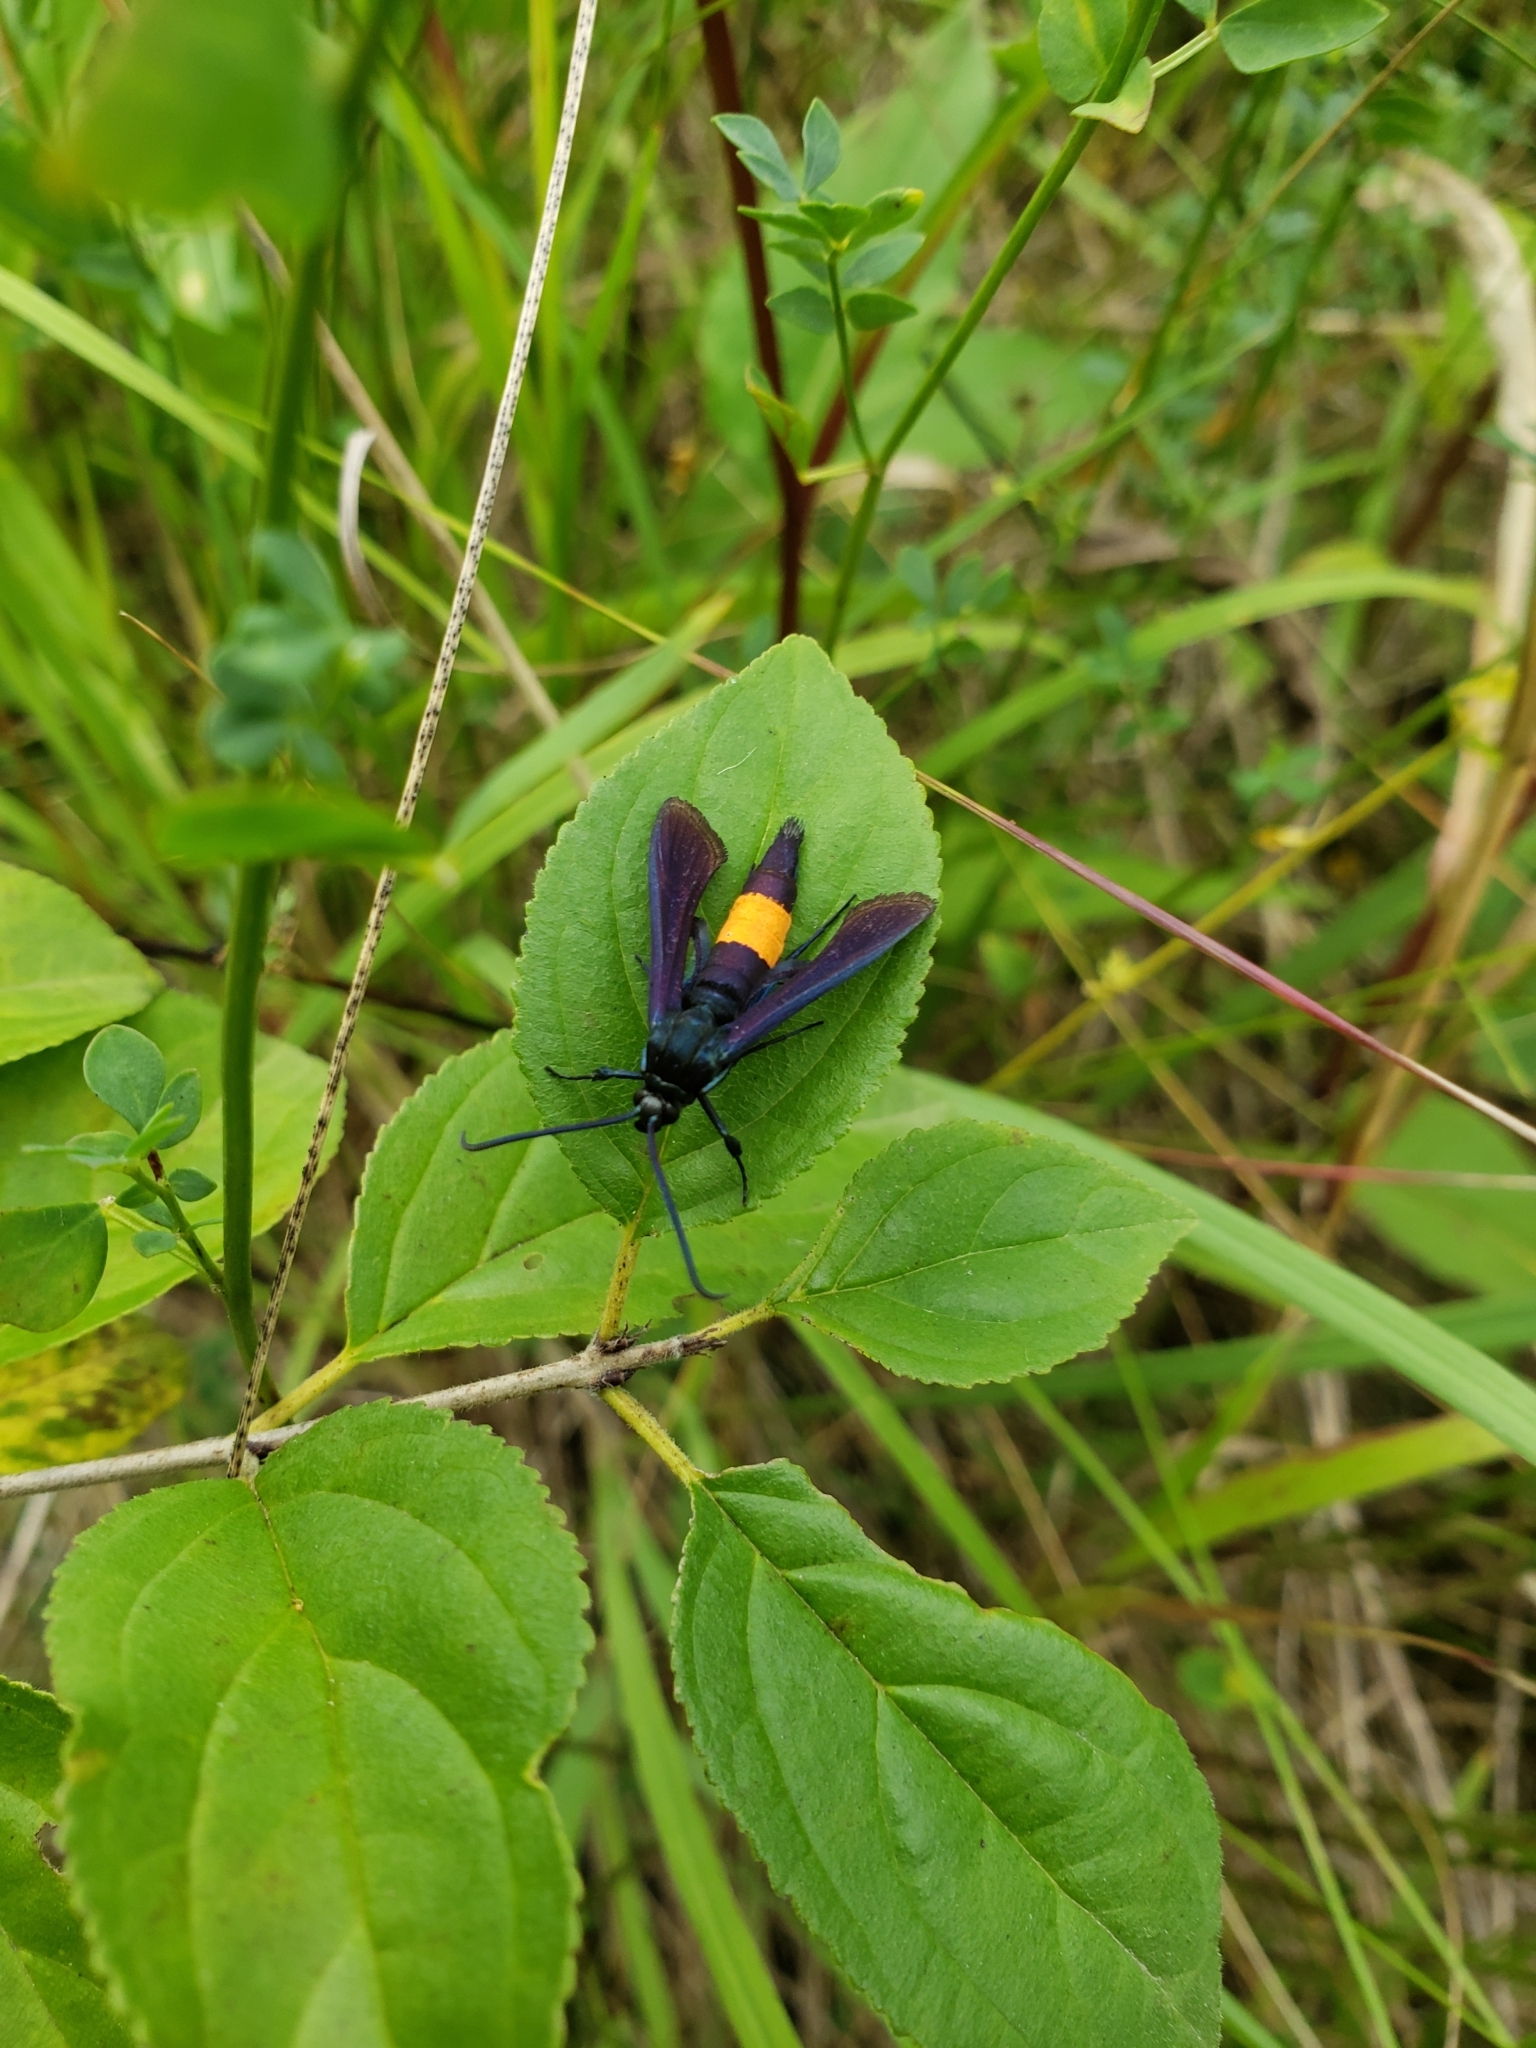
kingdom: Animalia
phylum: Arthropoda
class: Insecta
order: Lepidoptera
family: Sesiidae
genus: Synanthedon
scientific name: Synanthedon exitiosa
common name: Peachtree borer moth
